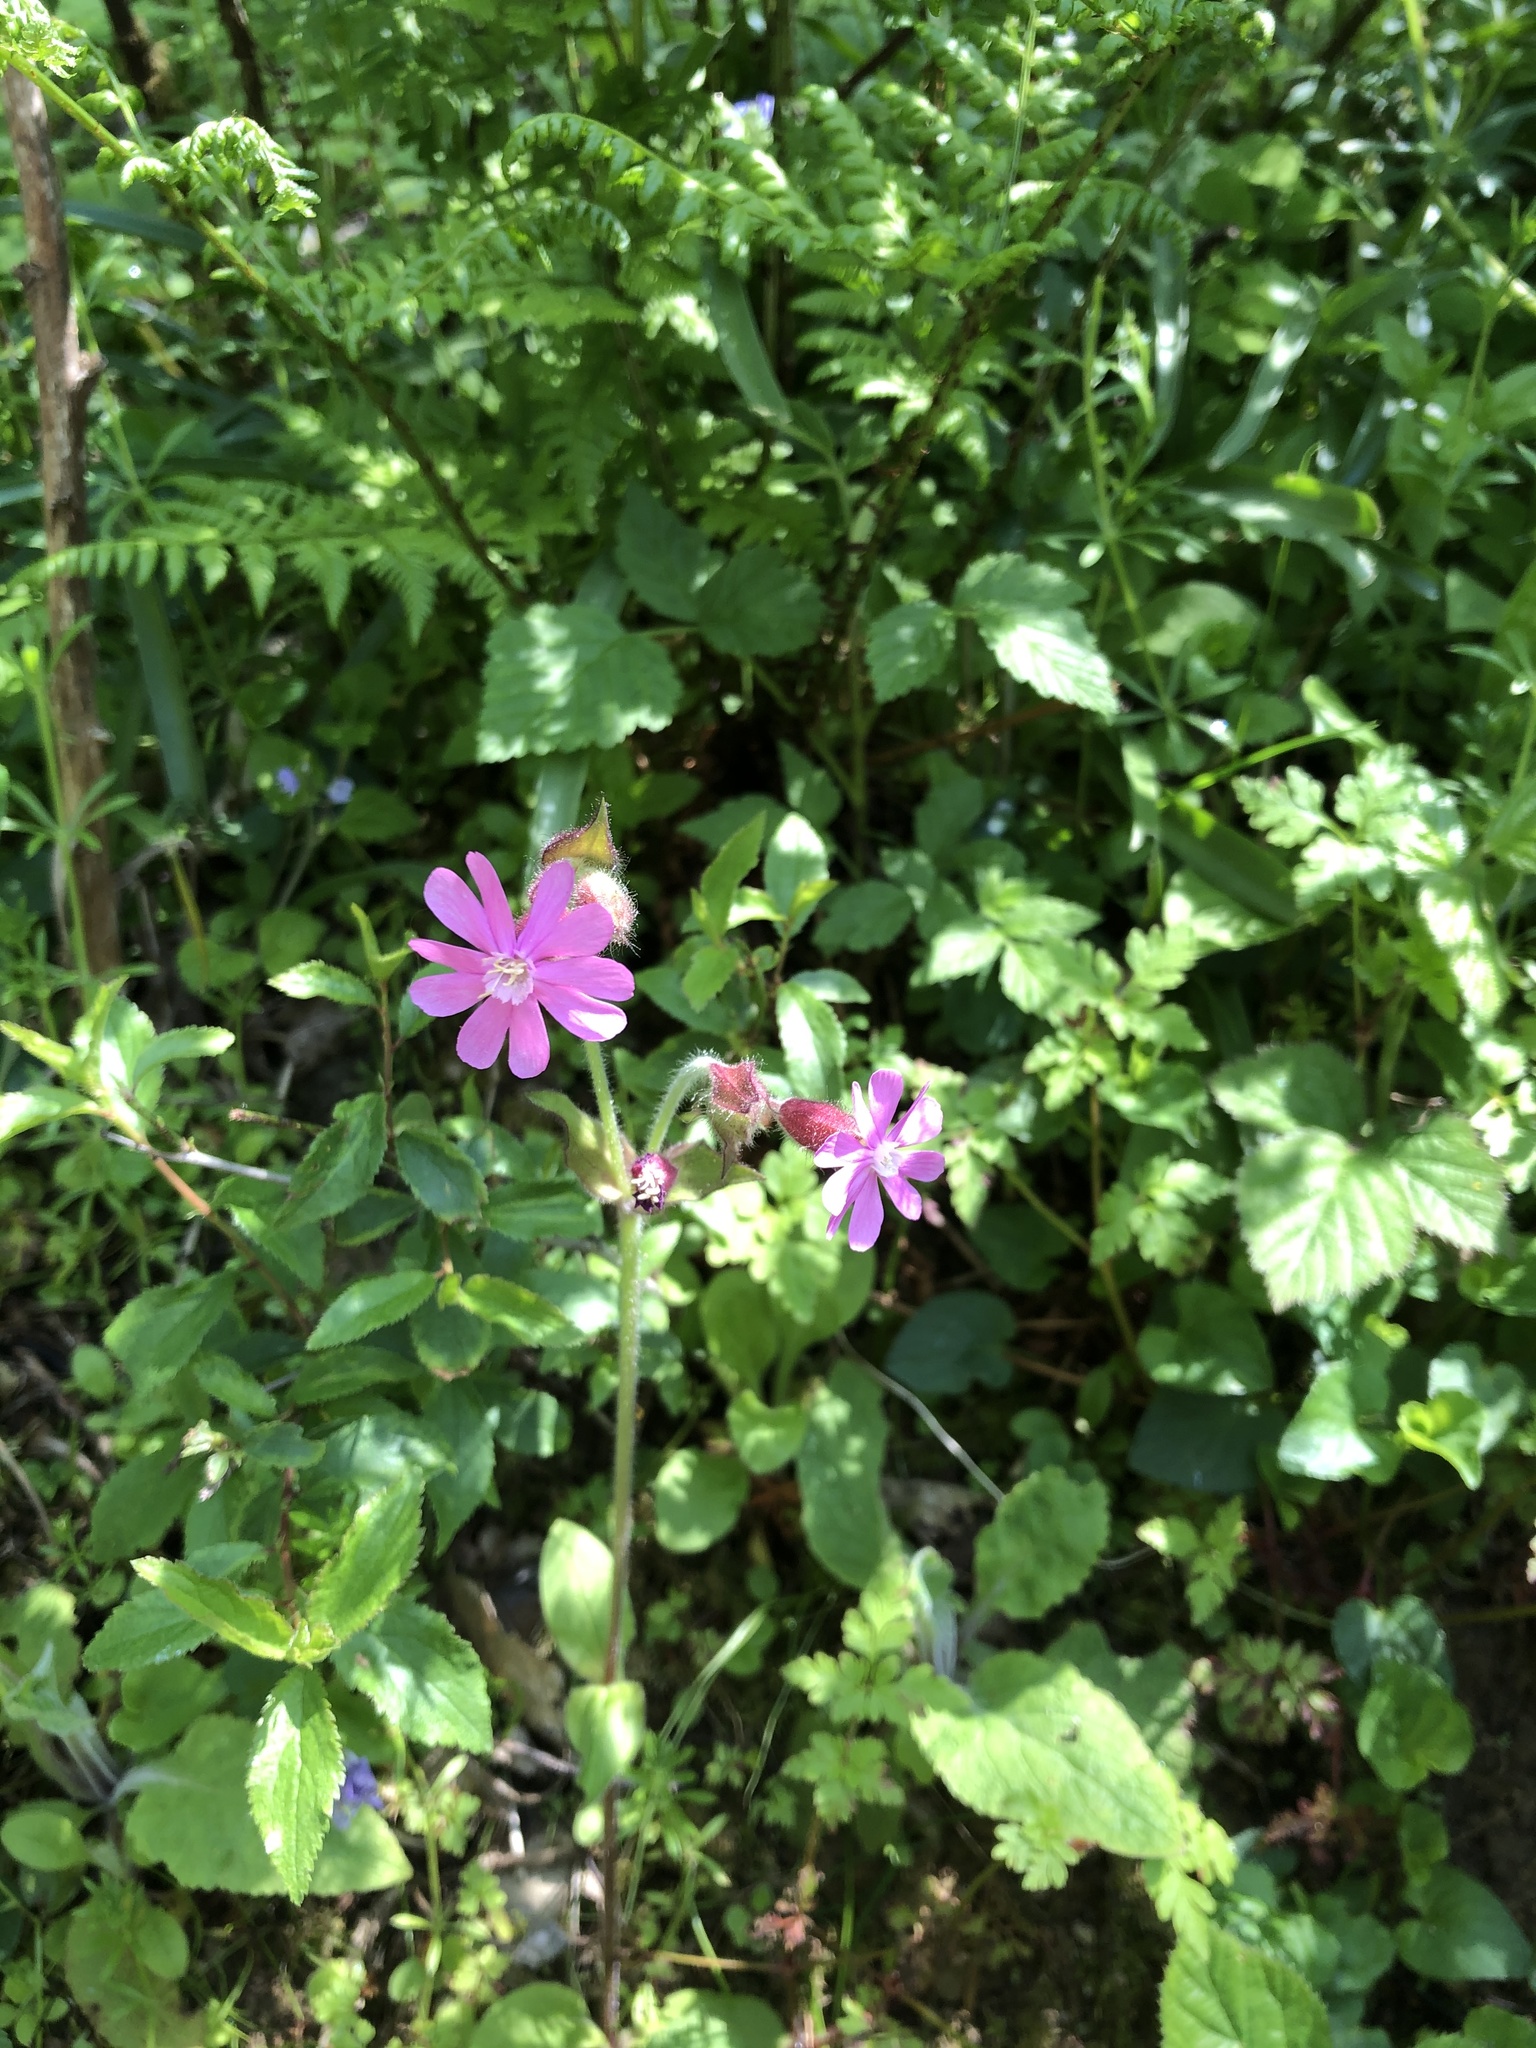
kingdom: Plantae
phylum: Tracheophyta
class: Magnoliopsida
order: Caryophyllales
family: Caryophyllaceae
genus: Silene
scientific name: Silene dioica
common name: Red campion
